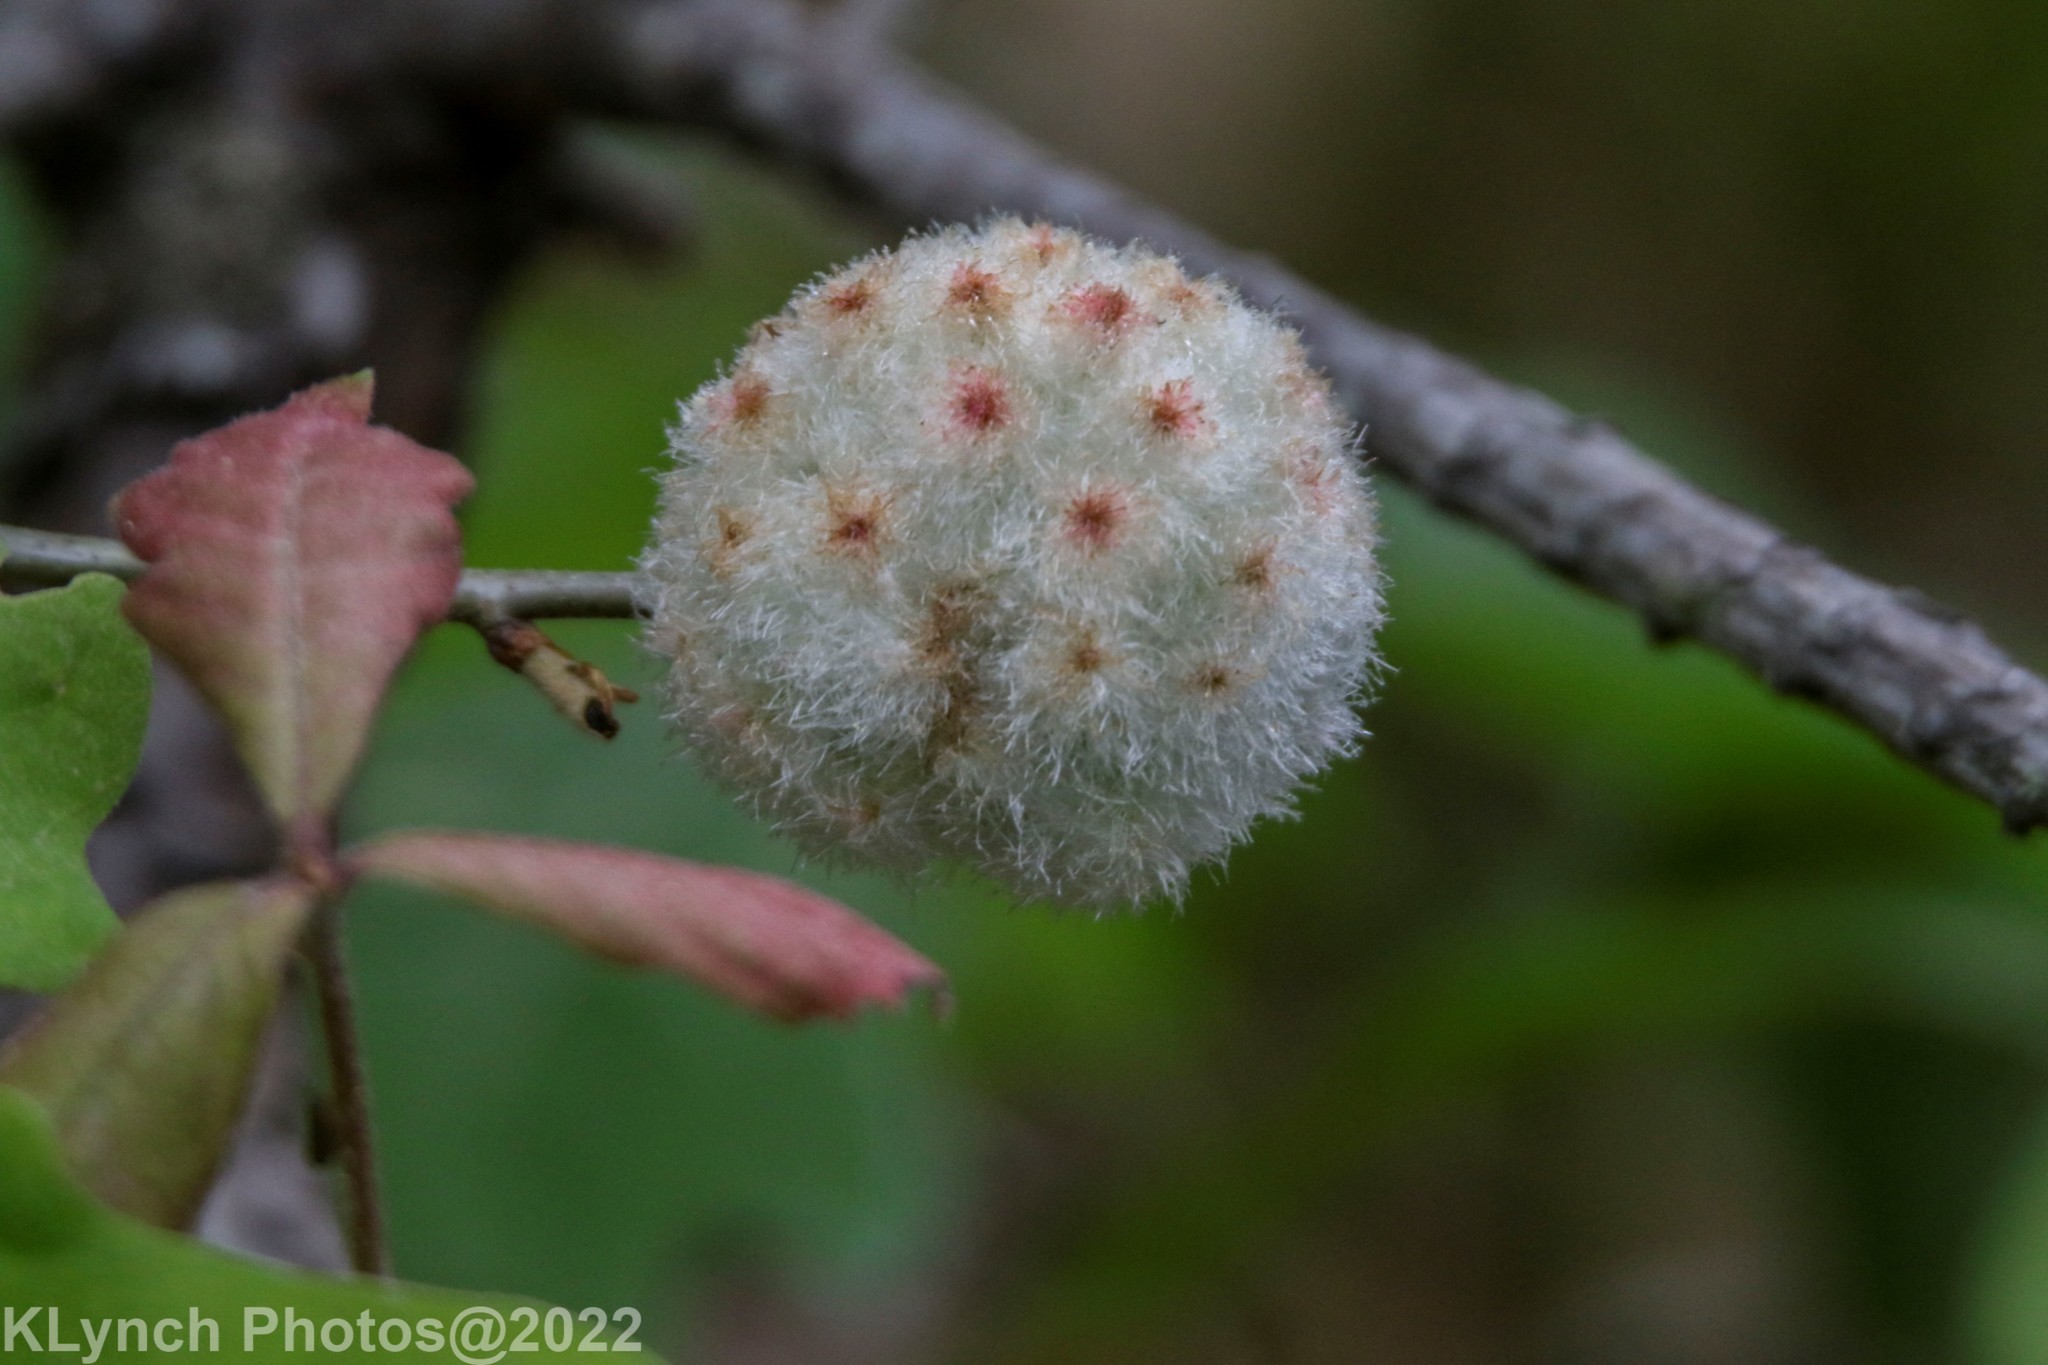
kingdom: Animalia
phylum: Arthropoda
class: Insecta
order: Hymenoptera
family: Cynipidae
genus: Callirhytis
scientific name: Callirhytis
